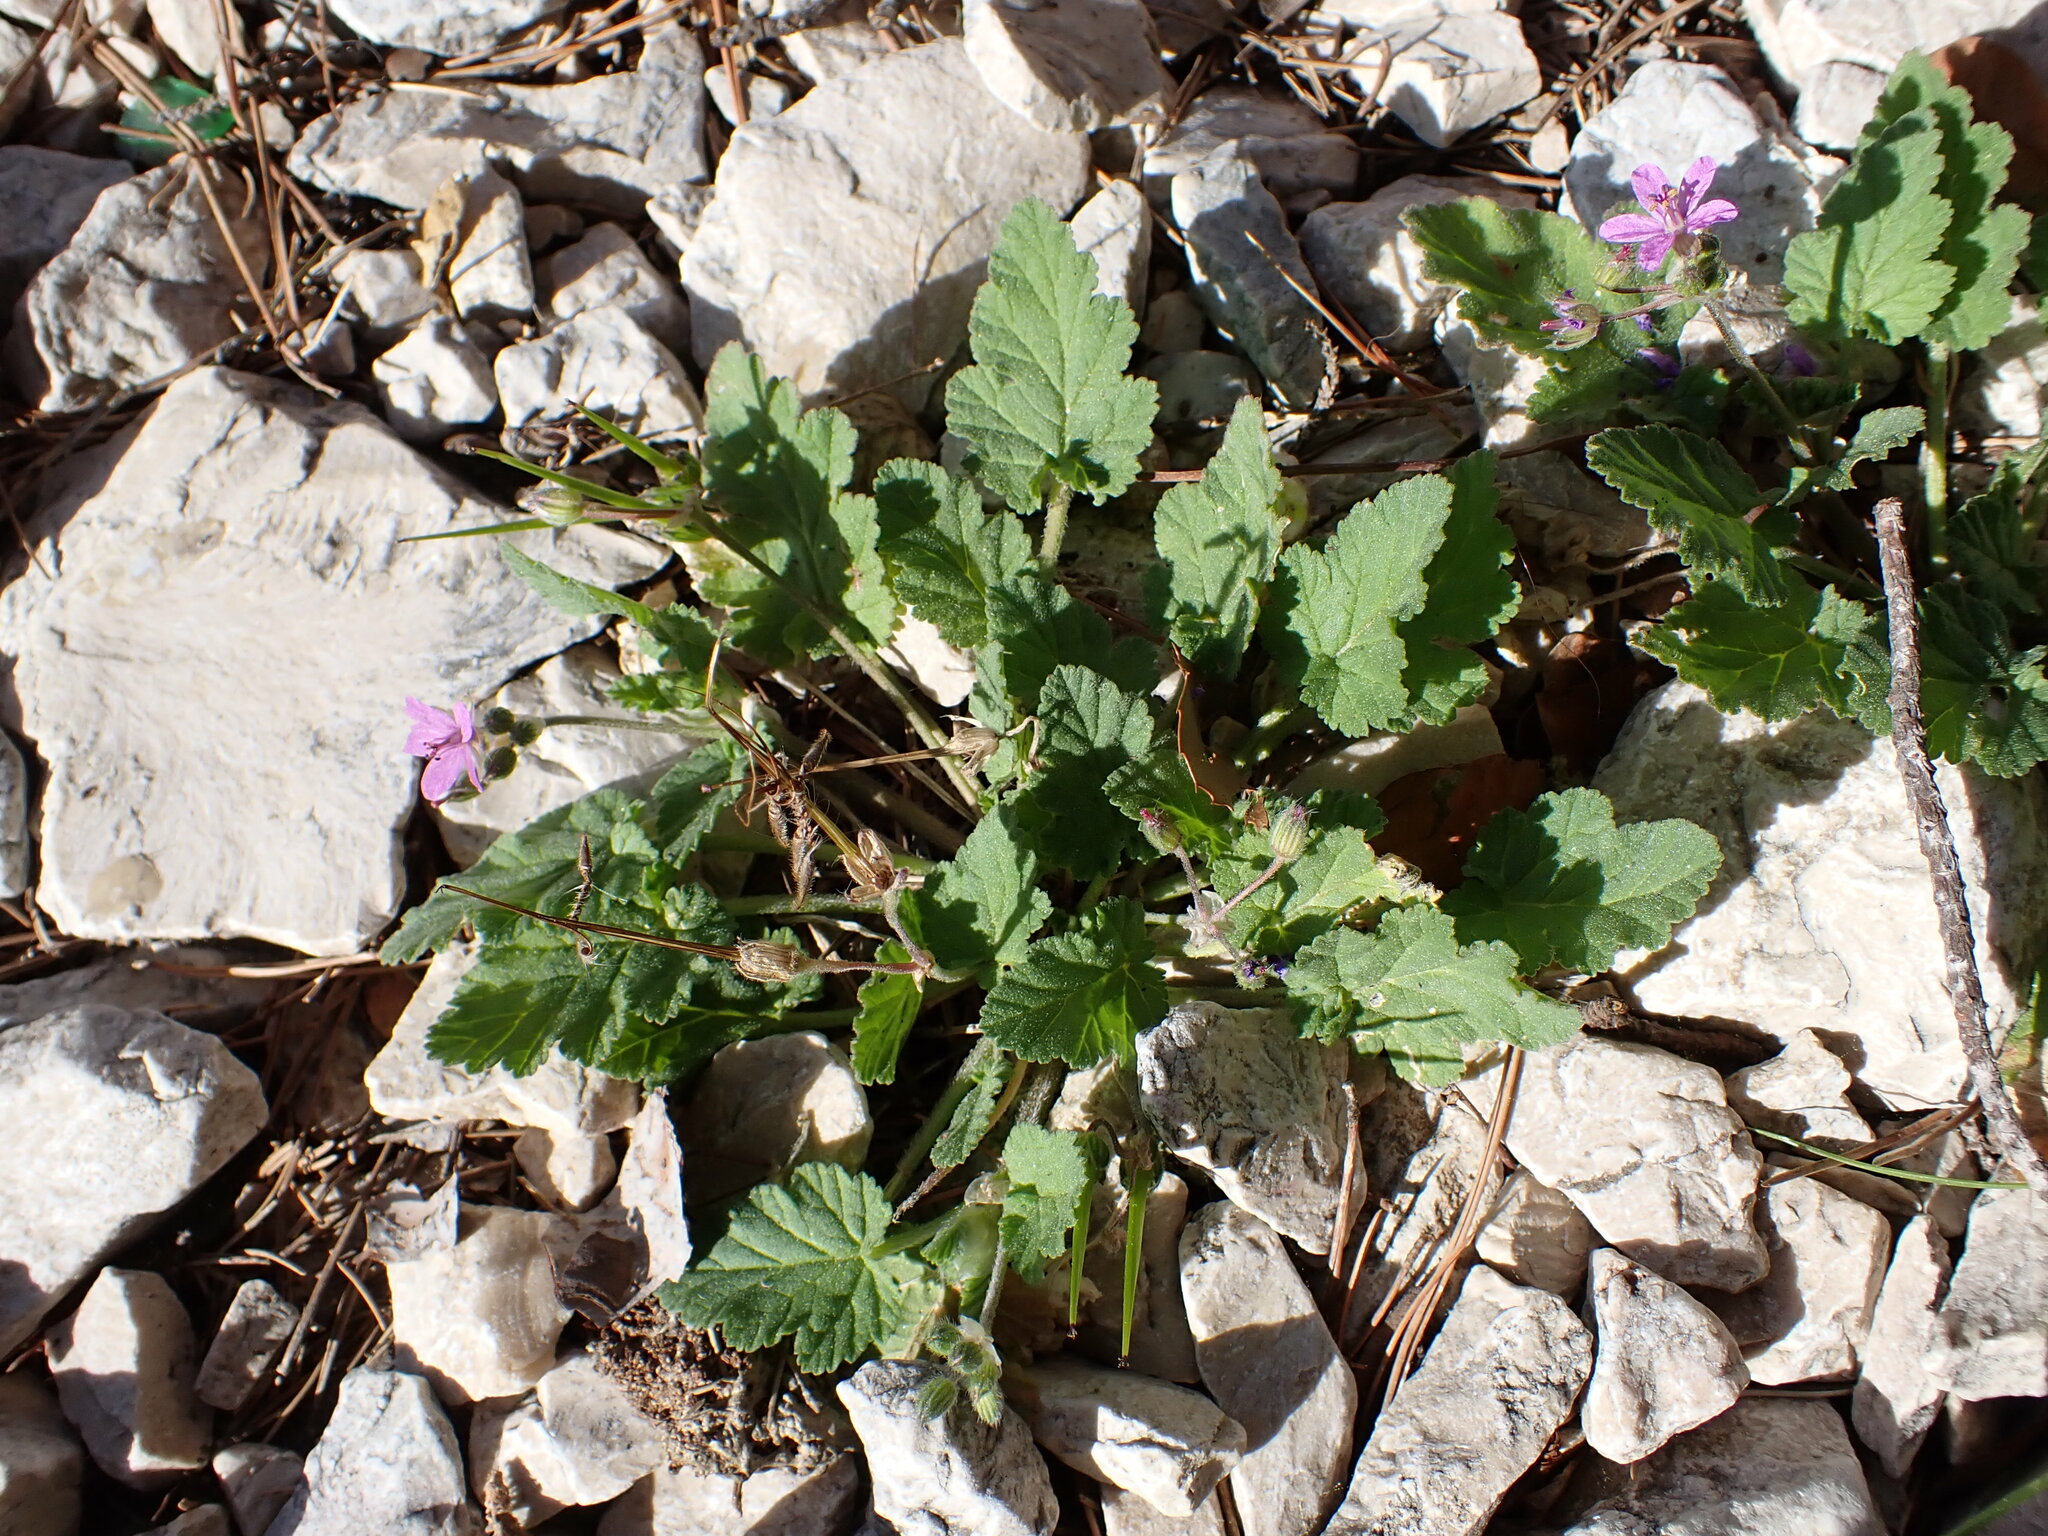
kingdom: Plantae
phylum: Tracheophyta
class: Magnoliopsida
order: Geraniales
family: Geraniaceae
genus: Erodium
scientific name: Erodium malacoides
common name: Soft stork's-bill
